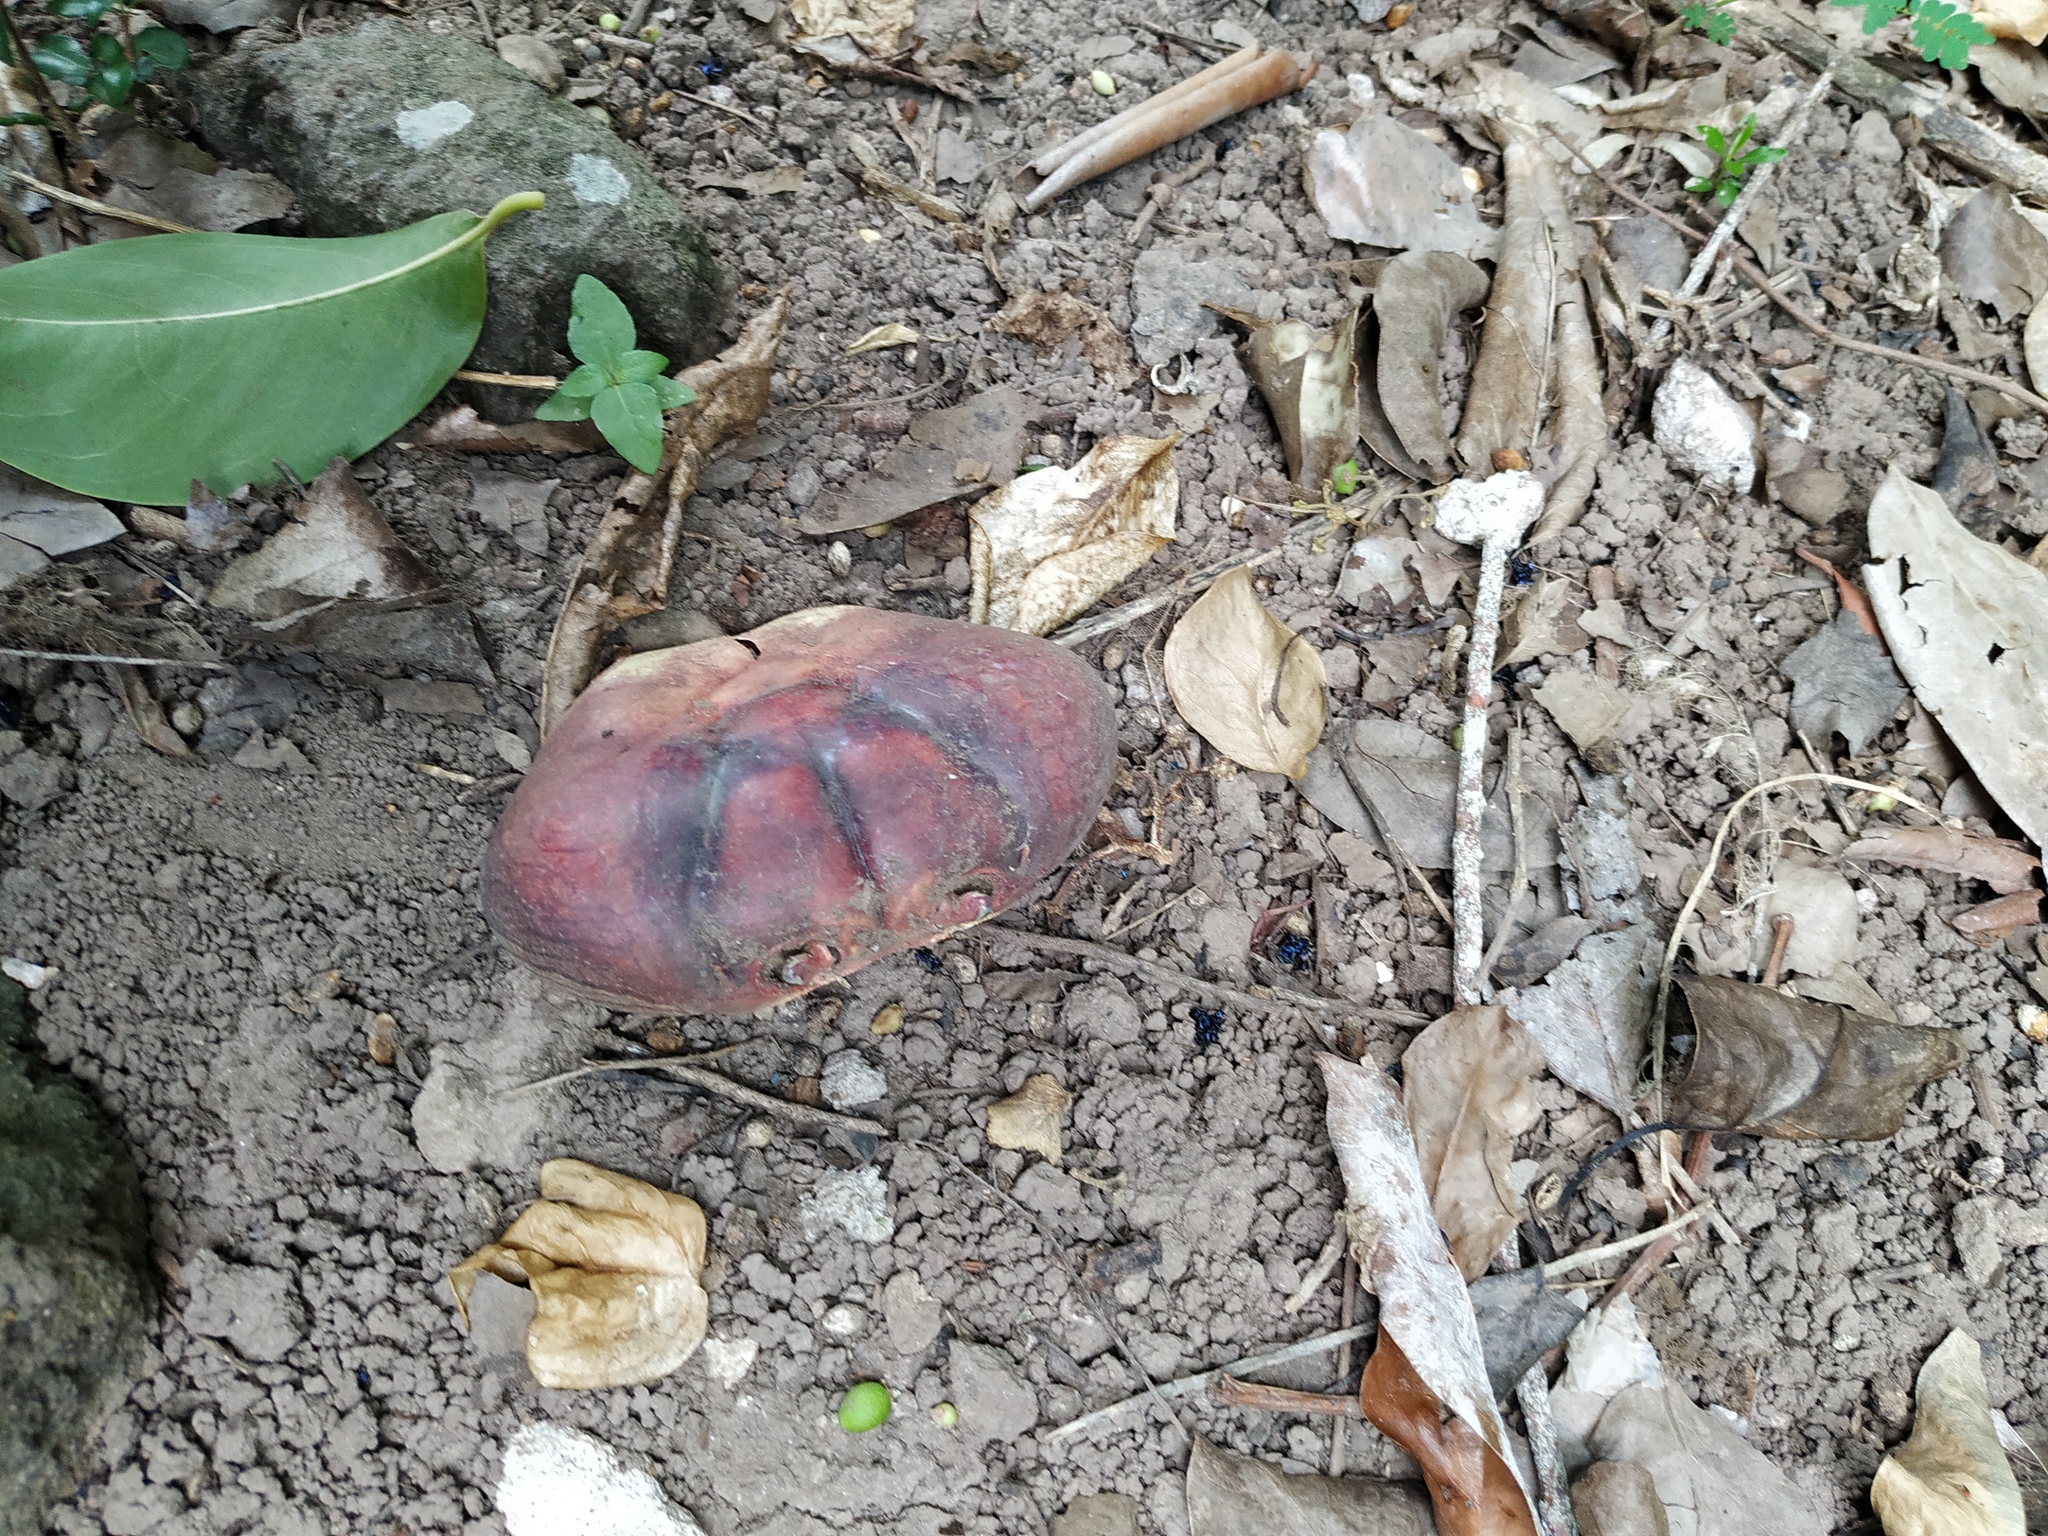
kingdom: Animalia
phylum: Arthropoda
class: Malacostraca
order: Decapoda
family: Gecarcinidae
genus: Gecarcinus
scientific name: Gecarcinus ruricola
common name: Black land crab
